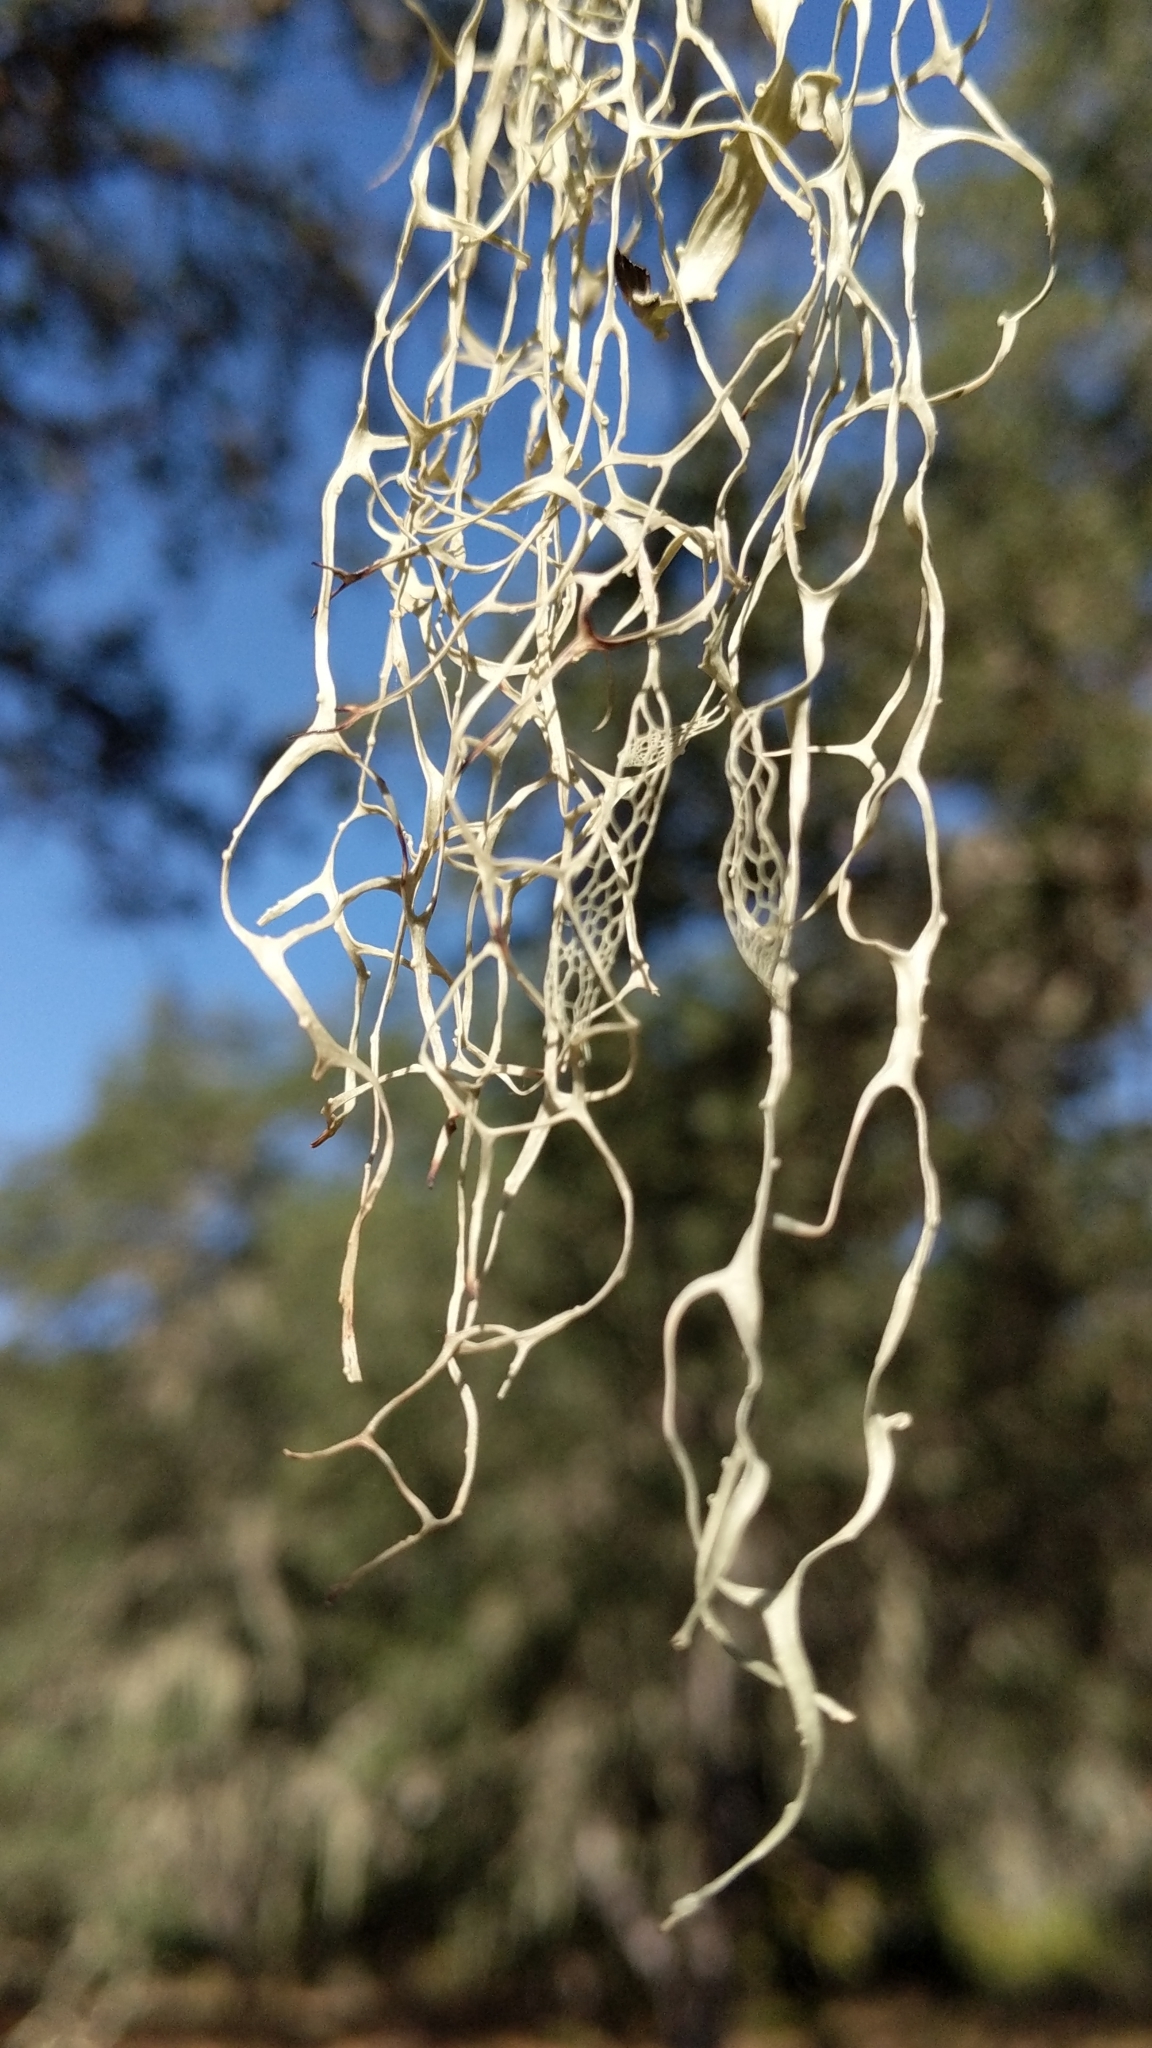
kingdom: Fungi
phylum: Ascomycota
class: Lecanoromycetes
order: Lecanorales
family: Ramalinaceae
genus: Ramalina
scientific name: Ramalina menziesii
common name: Lace lichen
